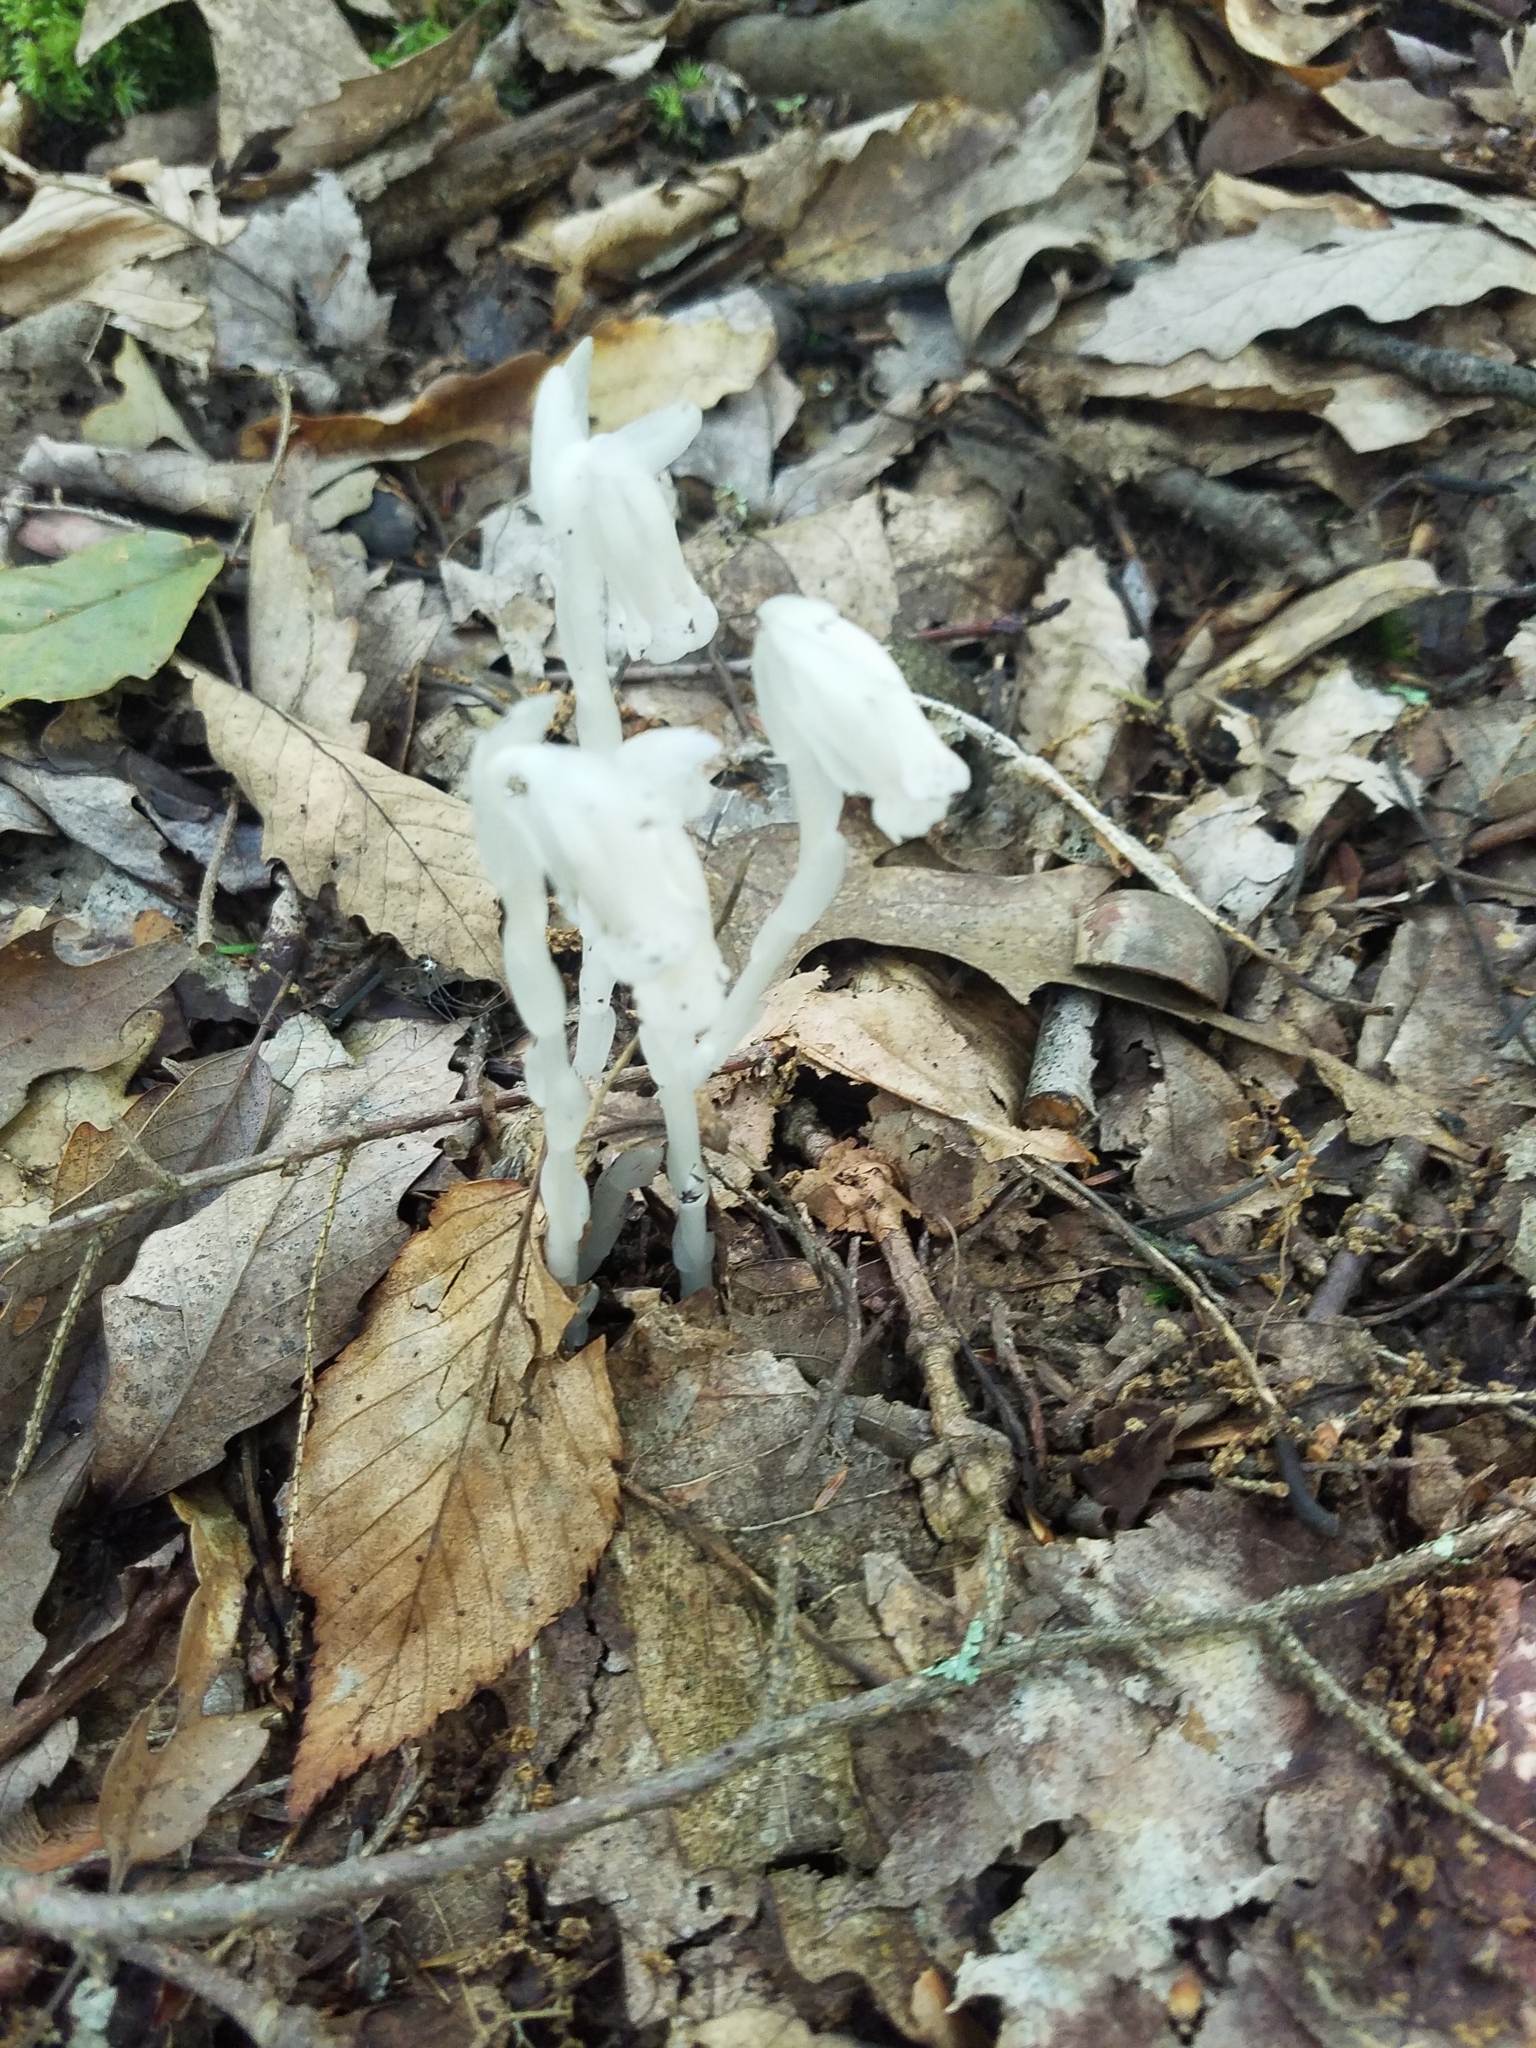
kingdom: Plantae
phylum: Tracheophyta
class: Magnoliopsida
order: Ericales
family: Ericaceae
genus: Monotropa
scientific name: Monotropa uniflora
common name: Convulsion root
